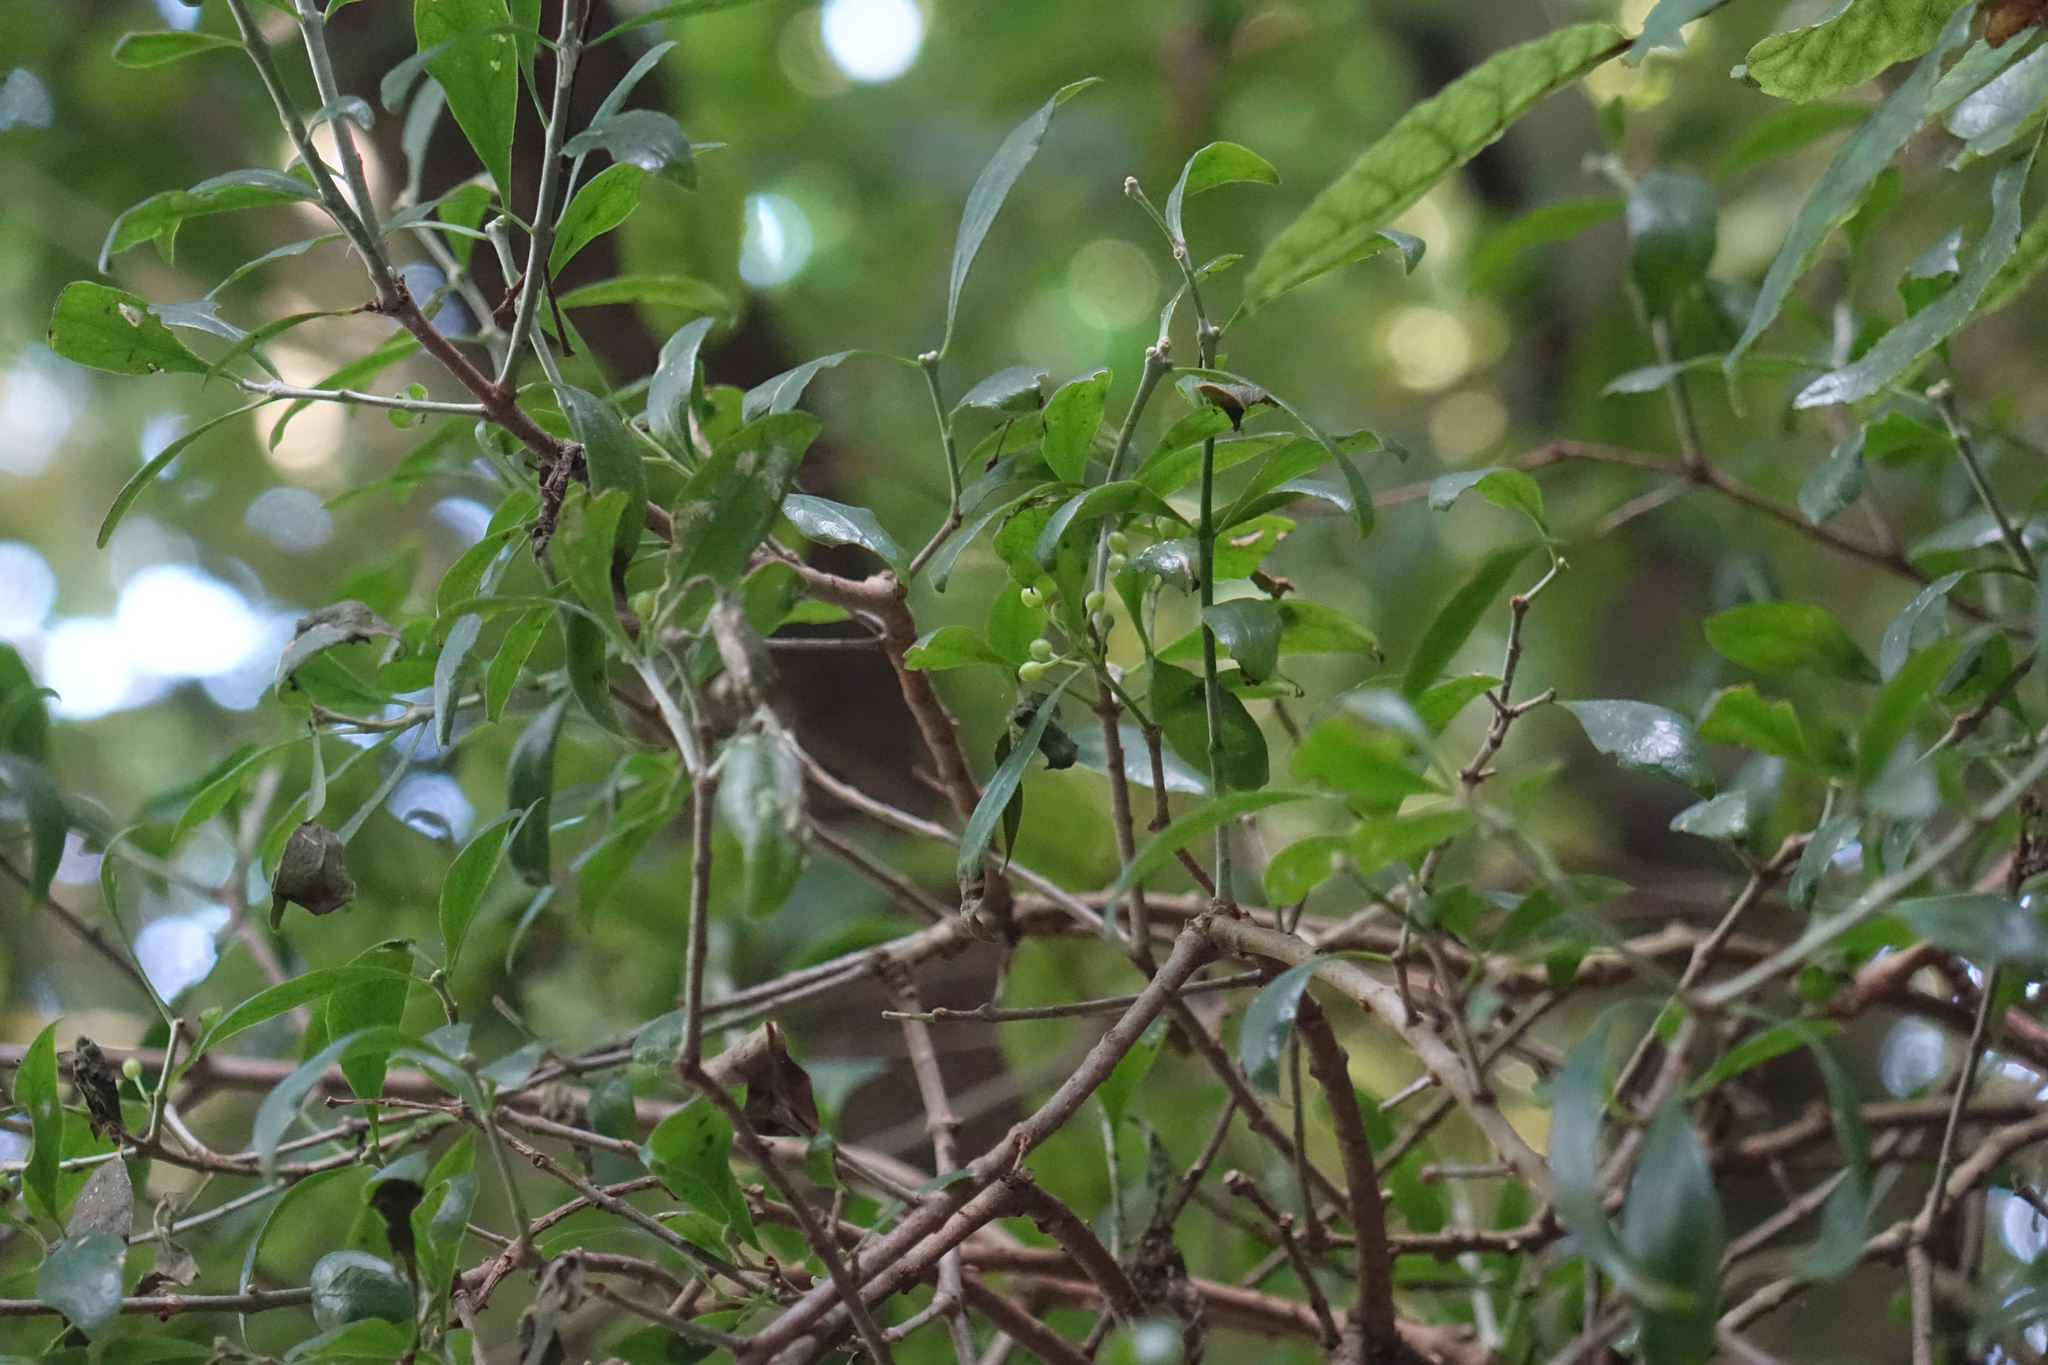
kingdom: Plantae
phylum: Tracheophyta
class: Magnoliopsida
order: Santalales
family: Loranthaceae
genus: Tupeia
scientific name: Tupeia antarctica
